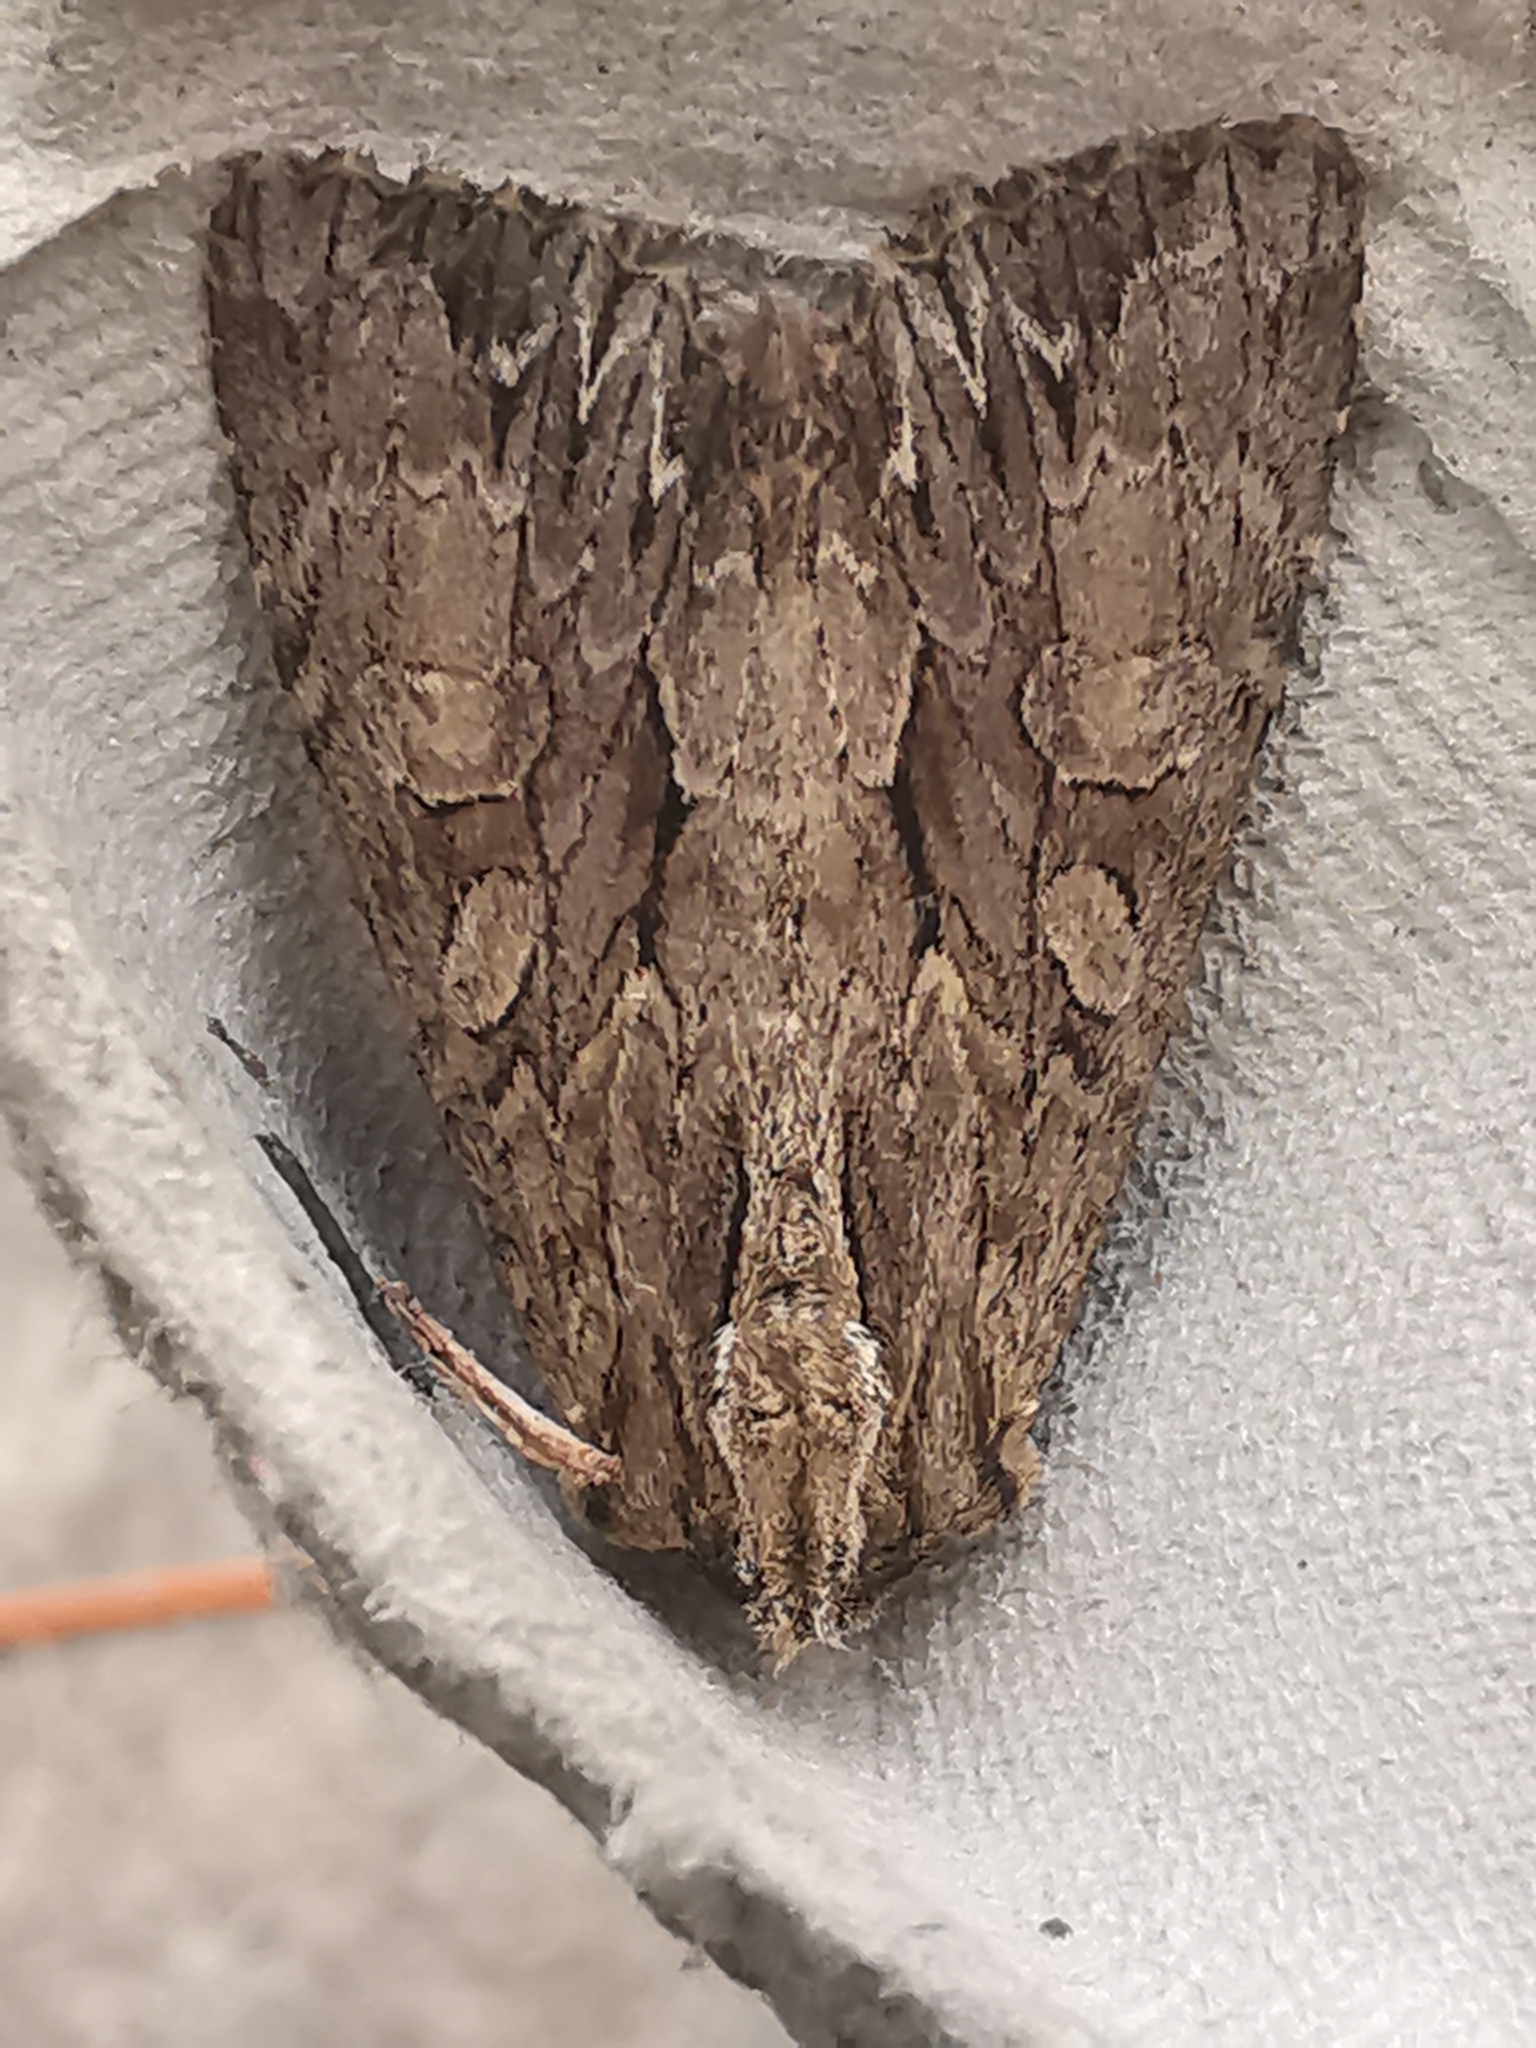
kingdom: Animalia
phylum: Arthropoda
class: Insecta
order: Lepidoptera
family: Noctuidae
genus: Apamea
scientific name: Apamea monoglypha
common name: Dark arches
